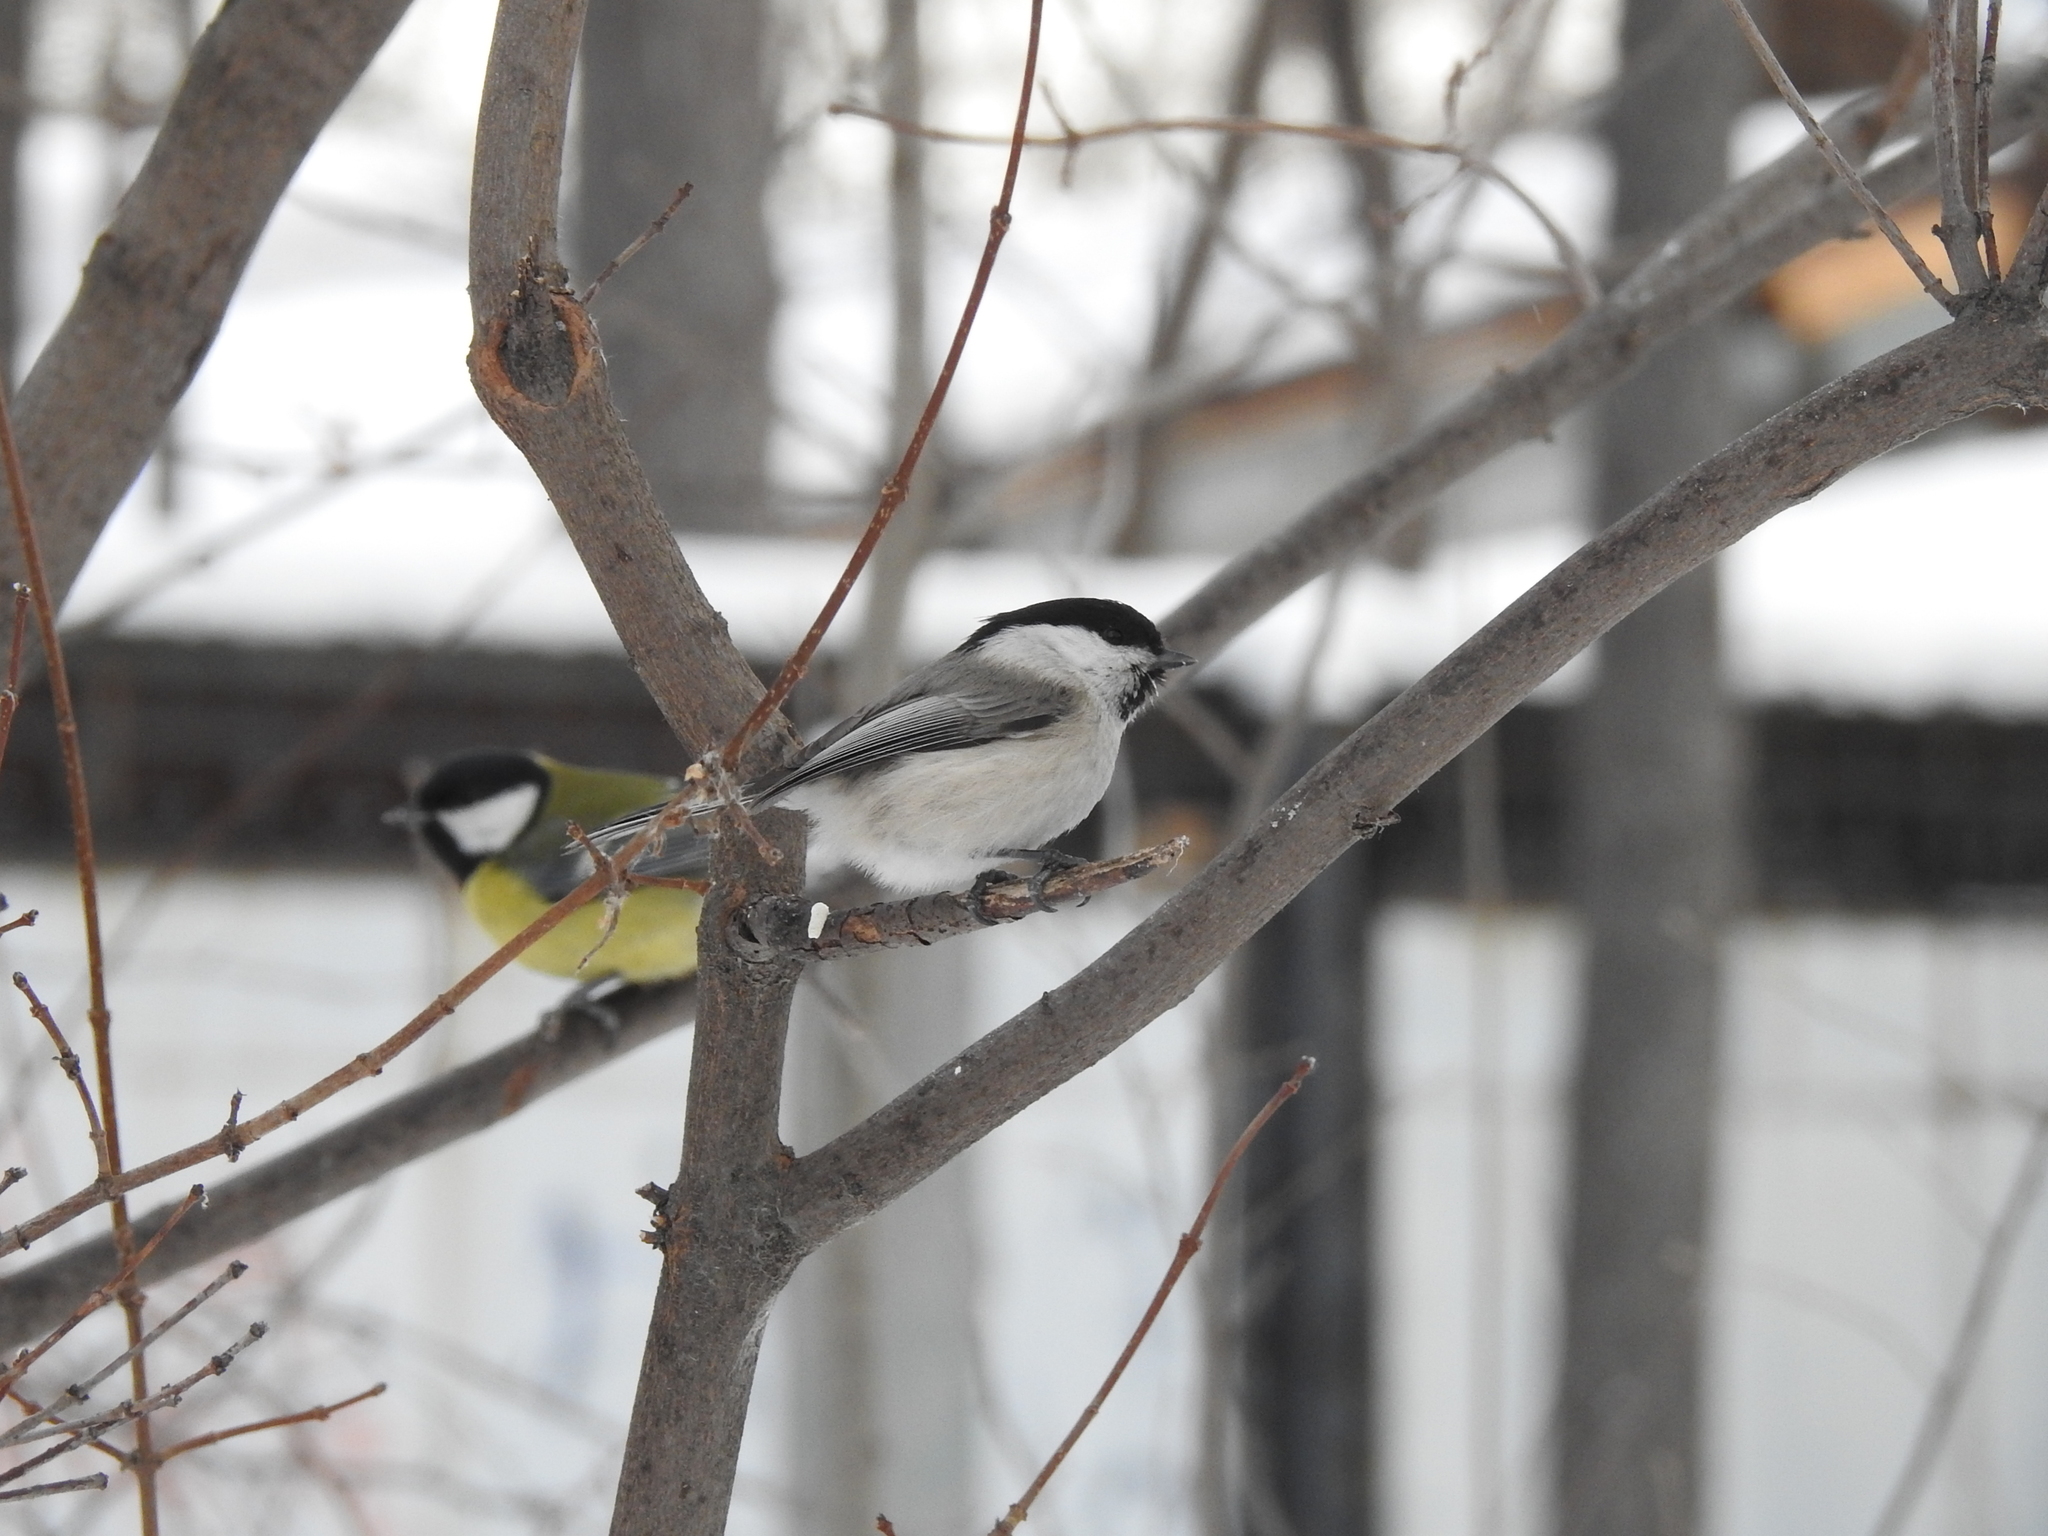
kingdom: Animalia
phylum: Chordata
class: Aves
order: Passeriformes
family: Paridae
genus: Poecile
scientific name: Poecile montanus
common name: Willow tit
